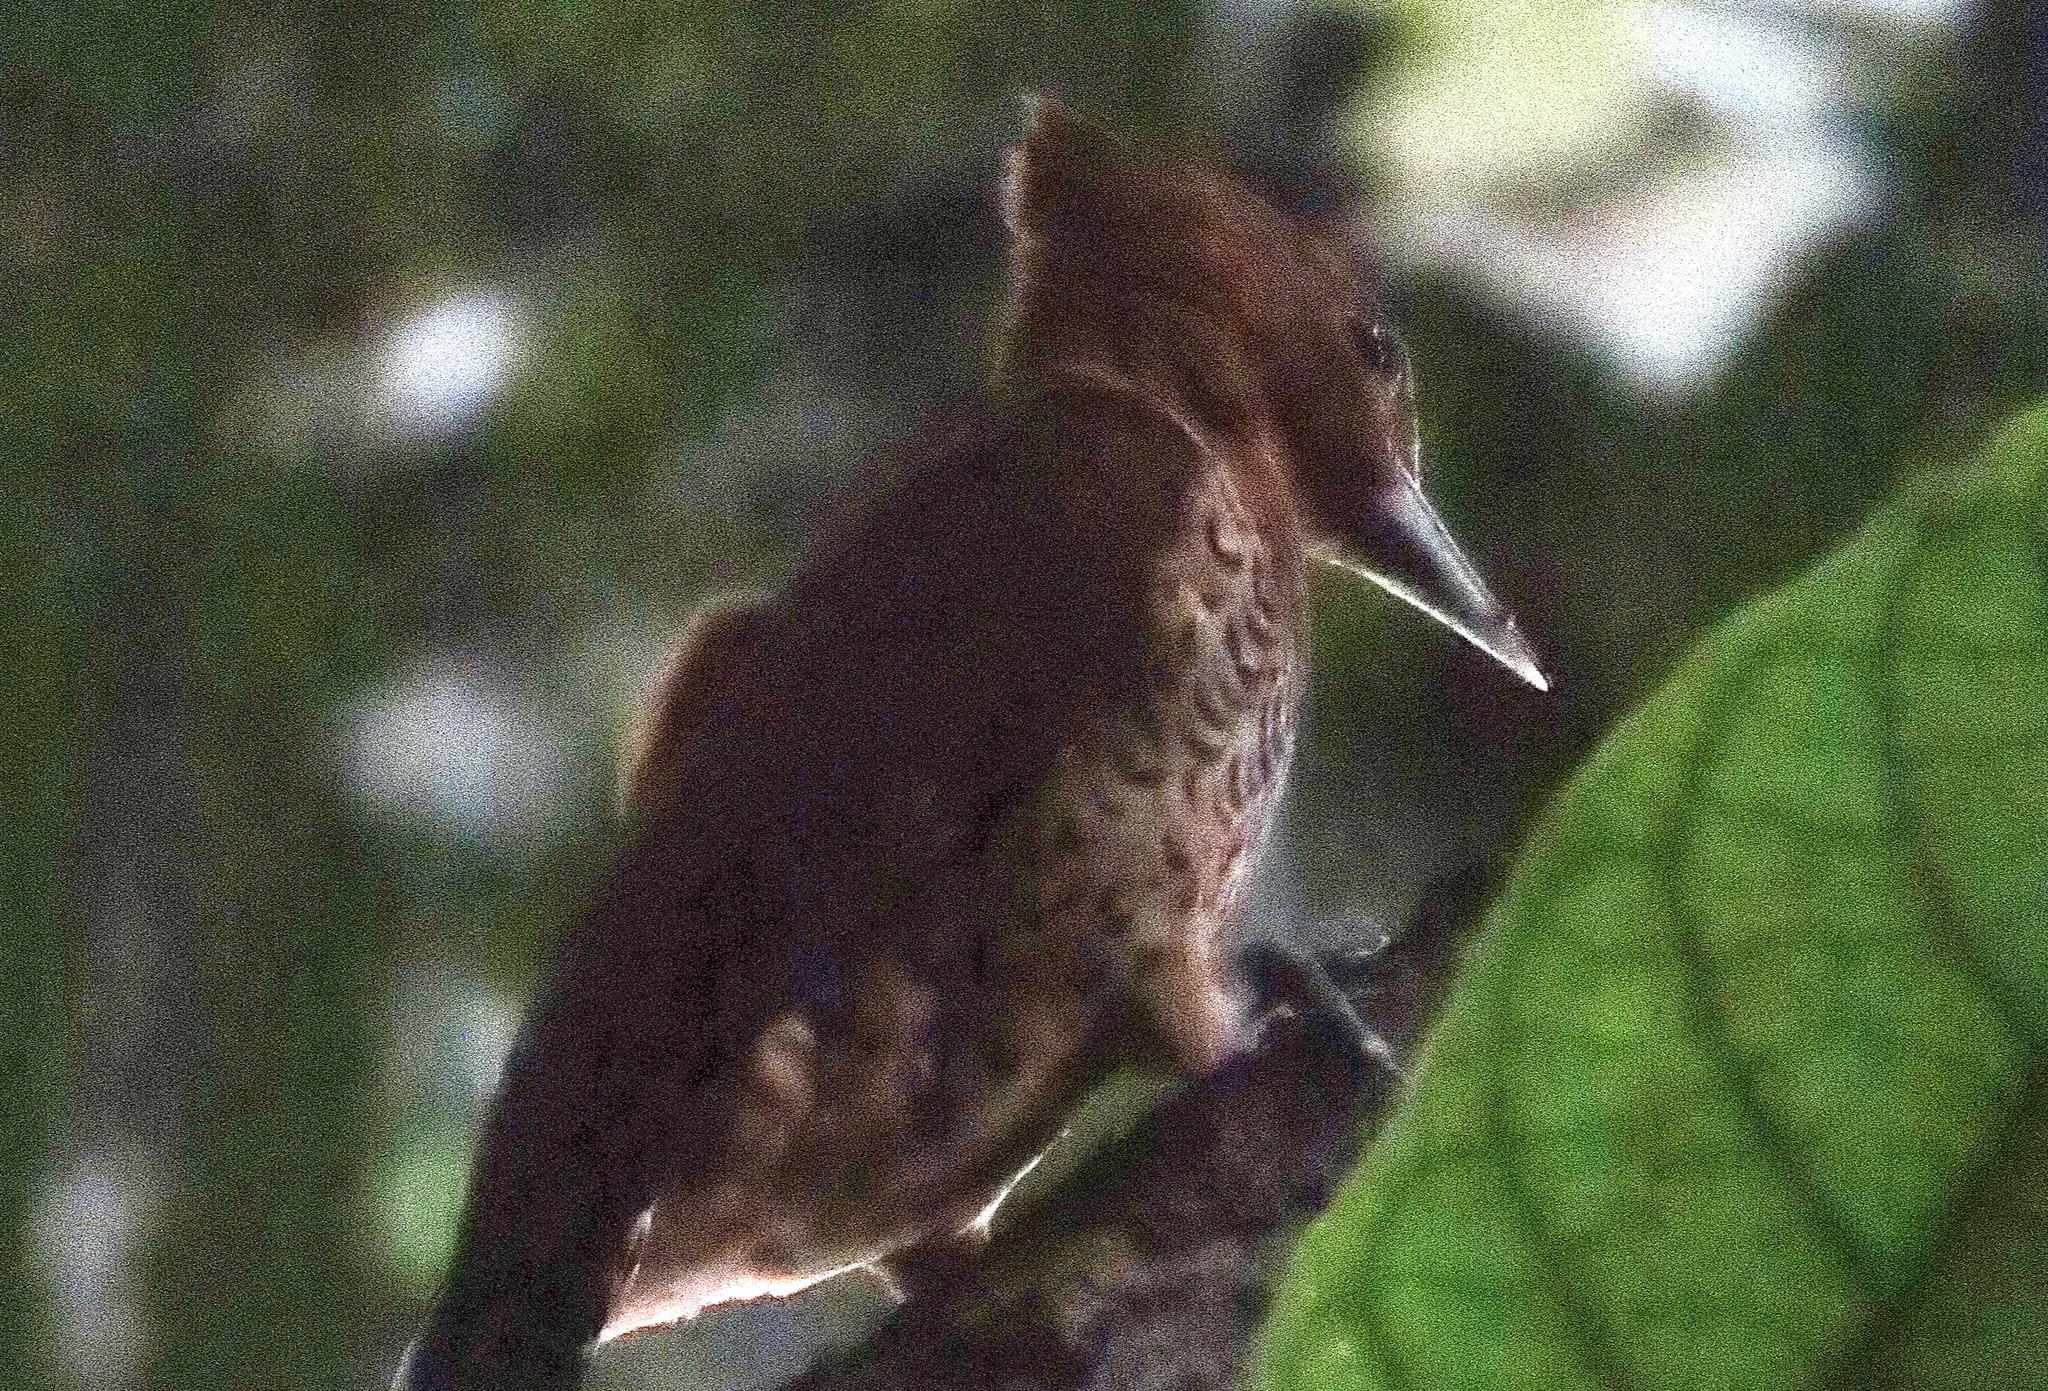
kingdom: Animalia
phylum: Chordata
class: Aves
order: Piciformes
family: Picidae
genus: Celeus
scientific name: Celeus loricatus
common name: Cinnamon woodpecker
